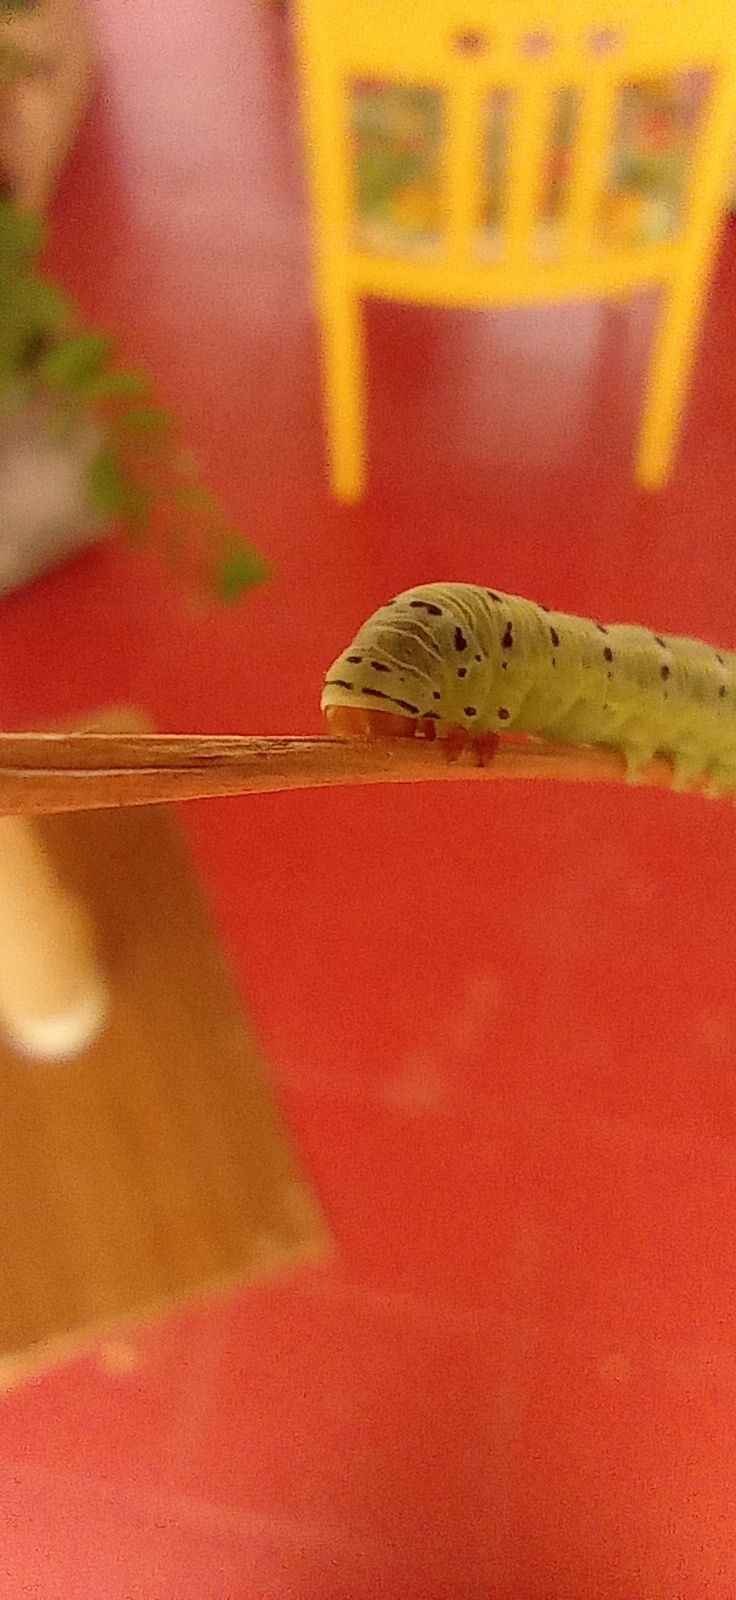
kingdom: Animalia
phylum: Arthropoda
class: Insecta
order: Lepidoptera
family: Noctuidae
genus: Argyrosticta
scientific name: Argyrosticta decumana
